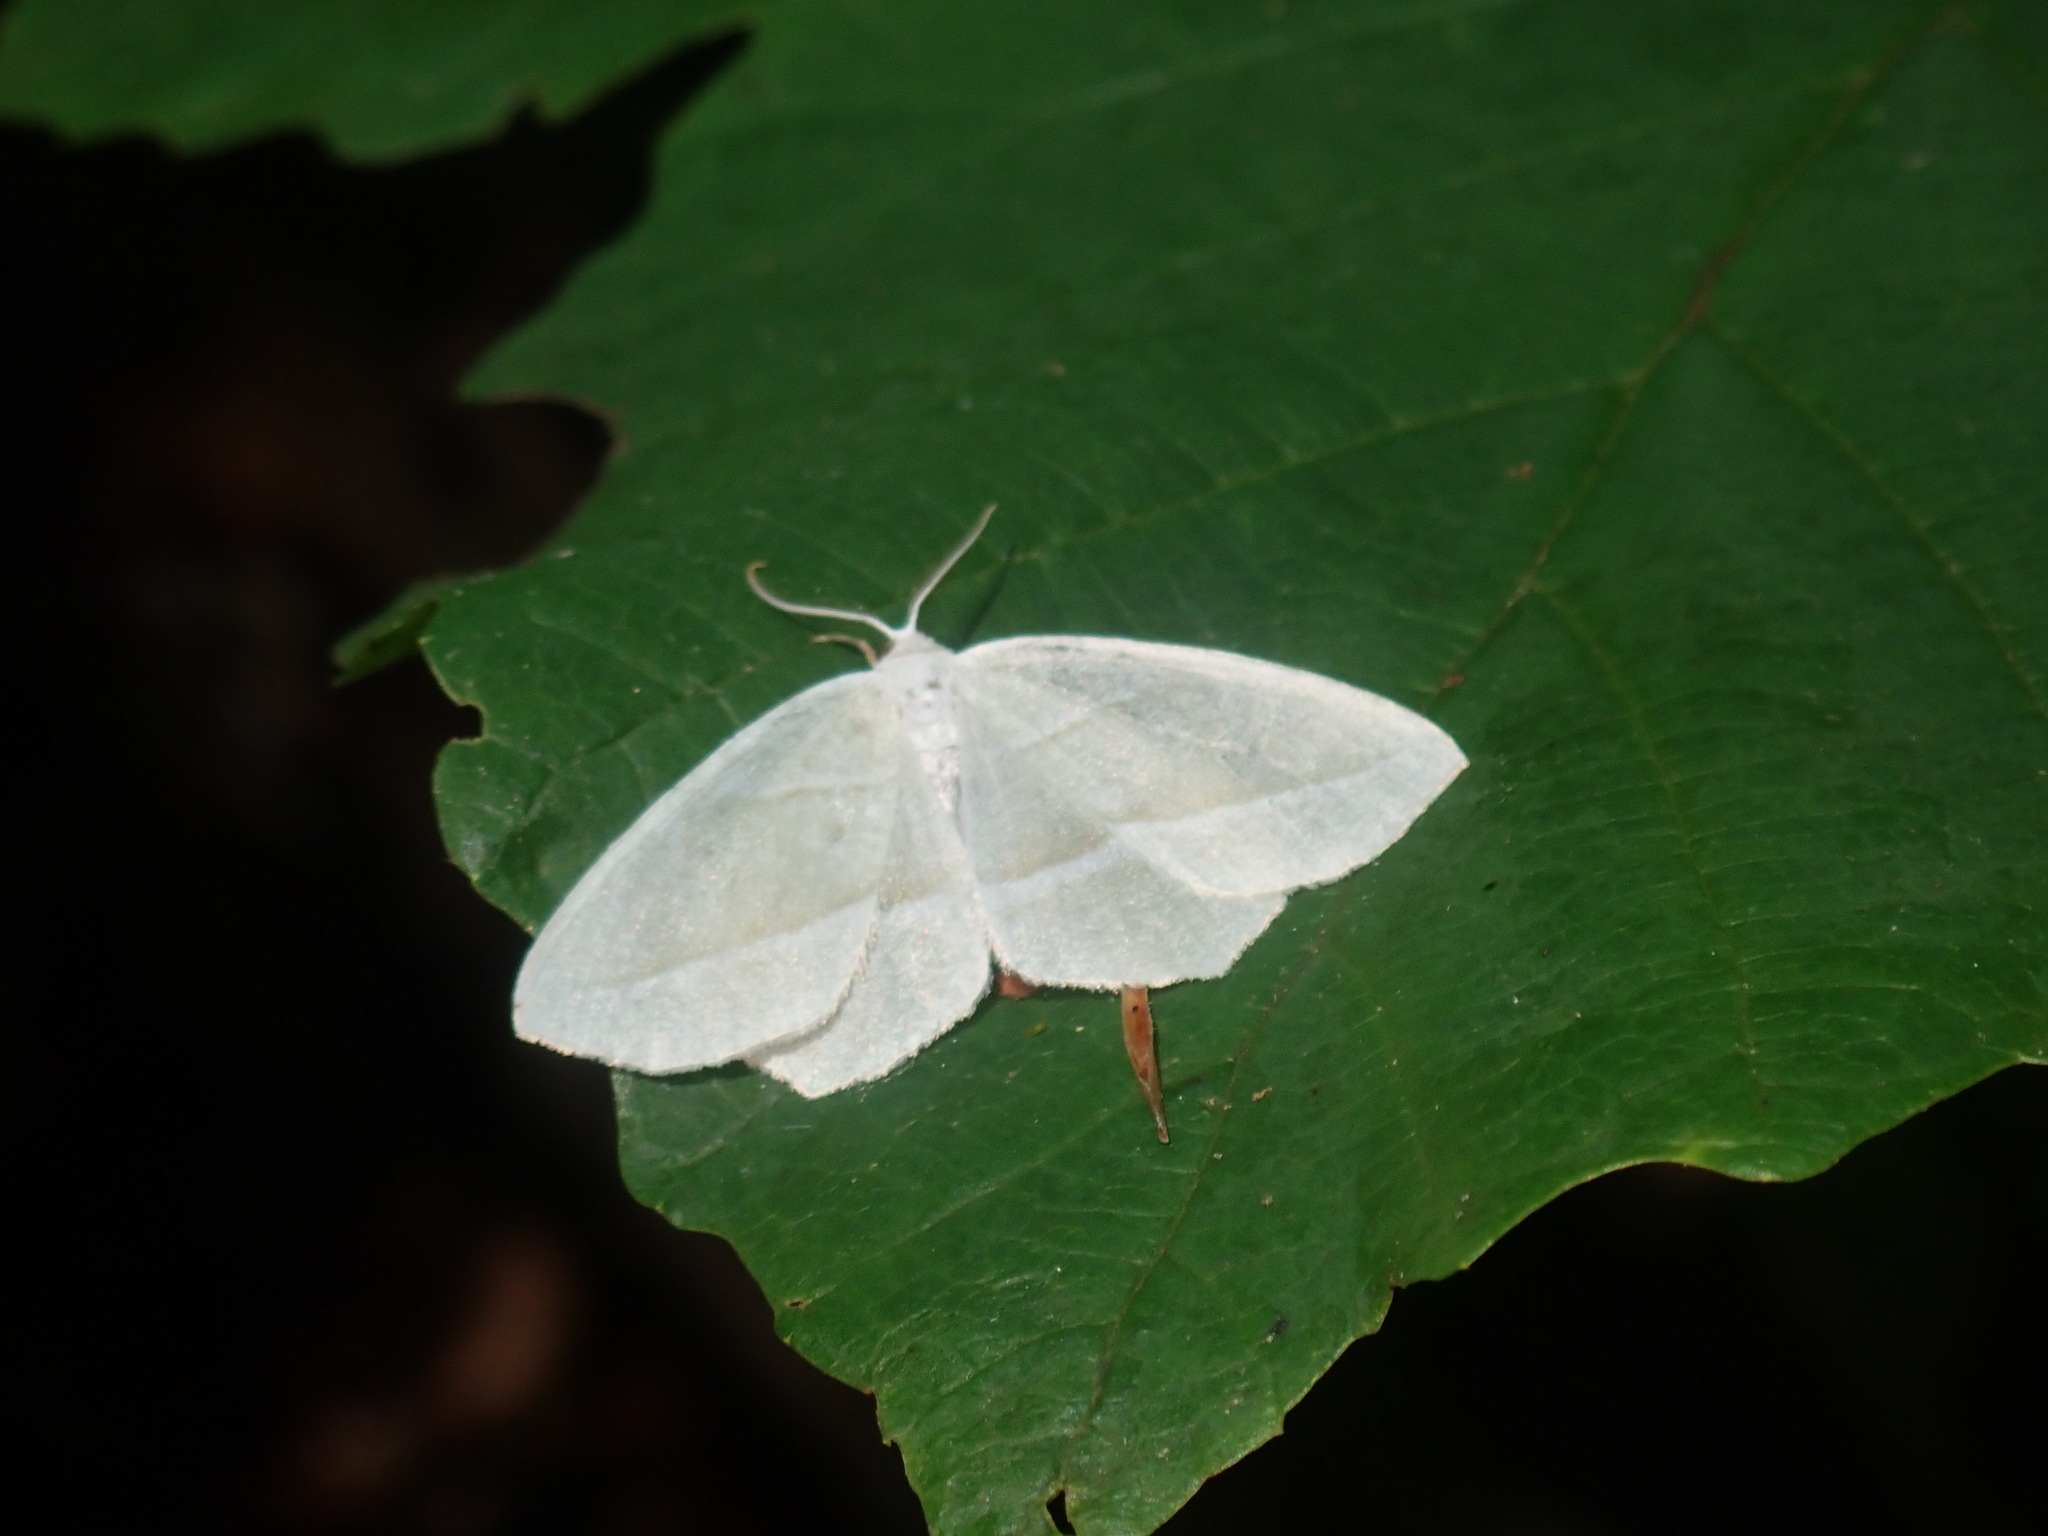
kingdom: Animalia
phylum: Arthropoda
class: Insecta
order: Lepidoptera
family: Geometridae
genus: Campaea
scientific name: Campaea perlata
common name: Fringed looper
